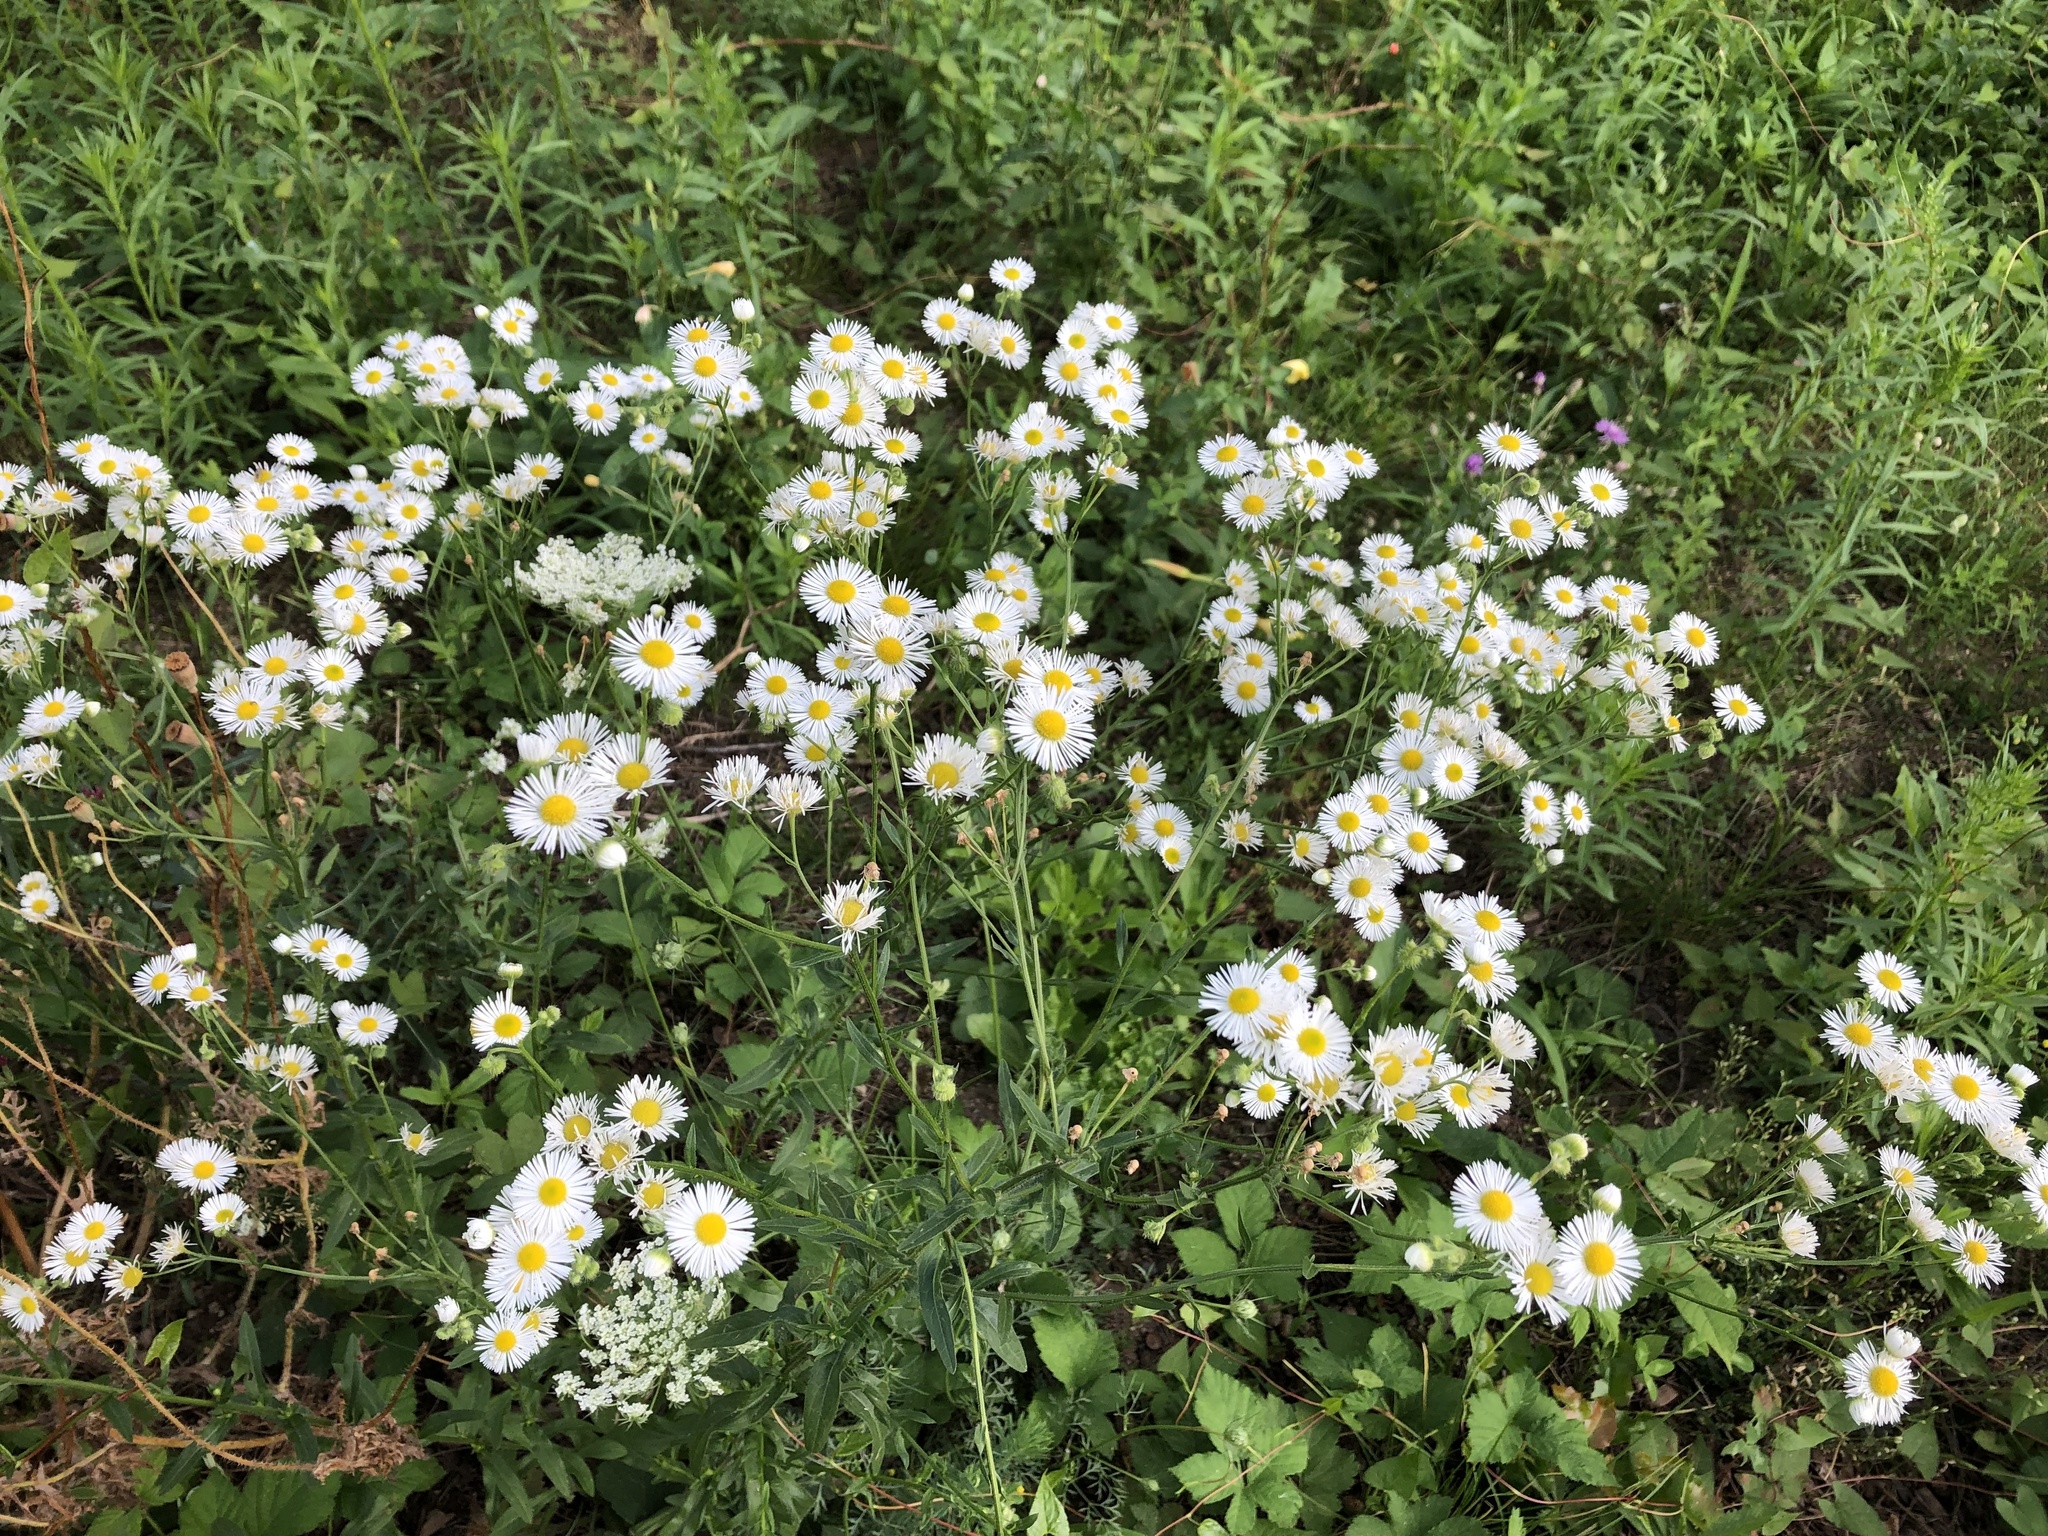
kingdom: Plantae
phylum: Tracheophyta
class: Magnoliopsida
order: Asterales
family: Asteraceae
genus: Erigeron
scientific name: Erigeron annuus
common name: Tall fleabane
